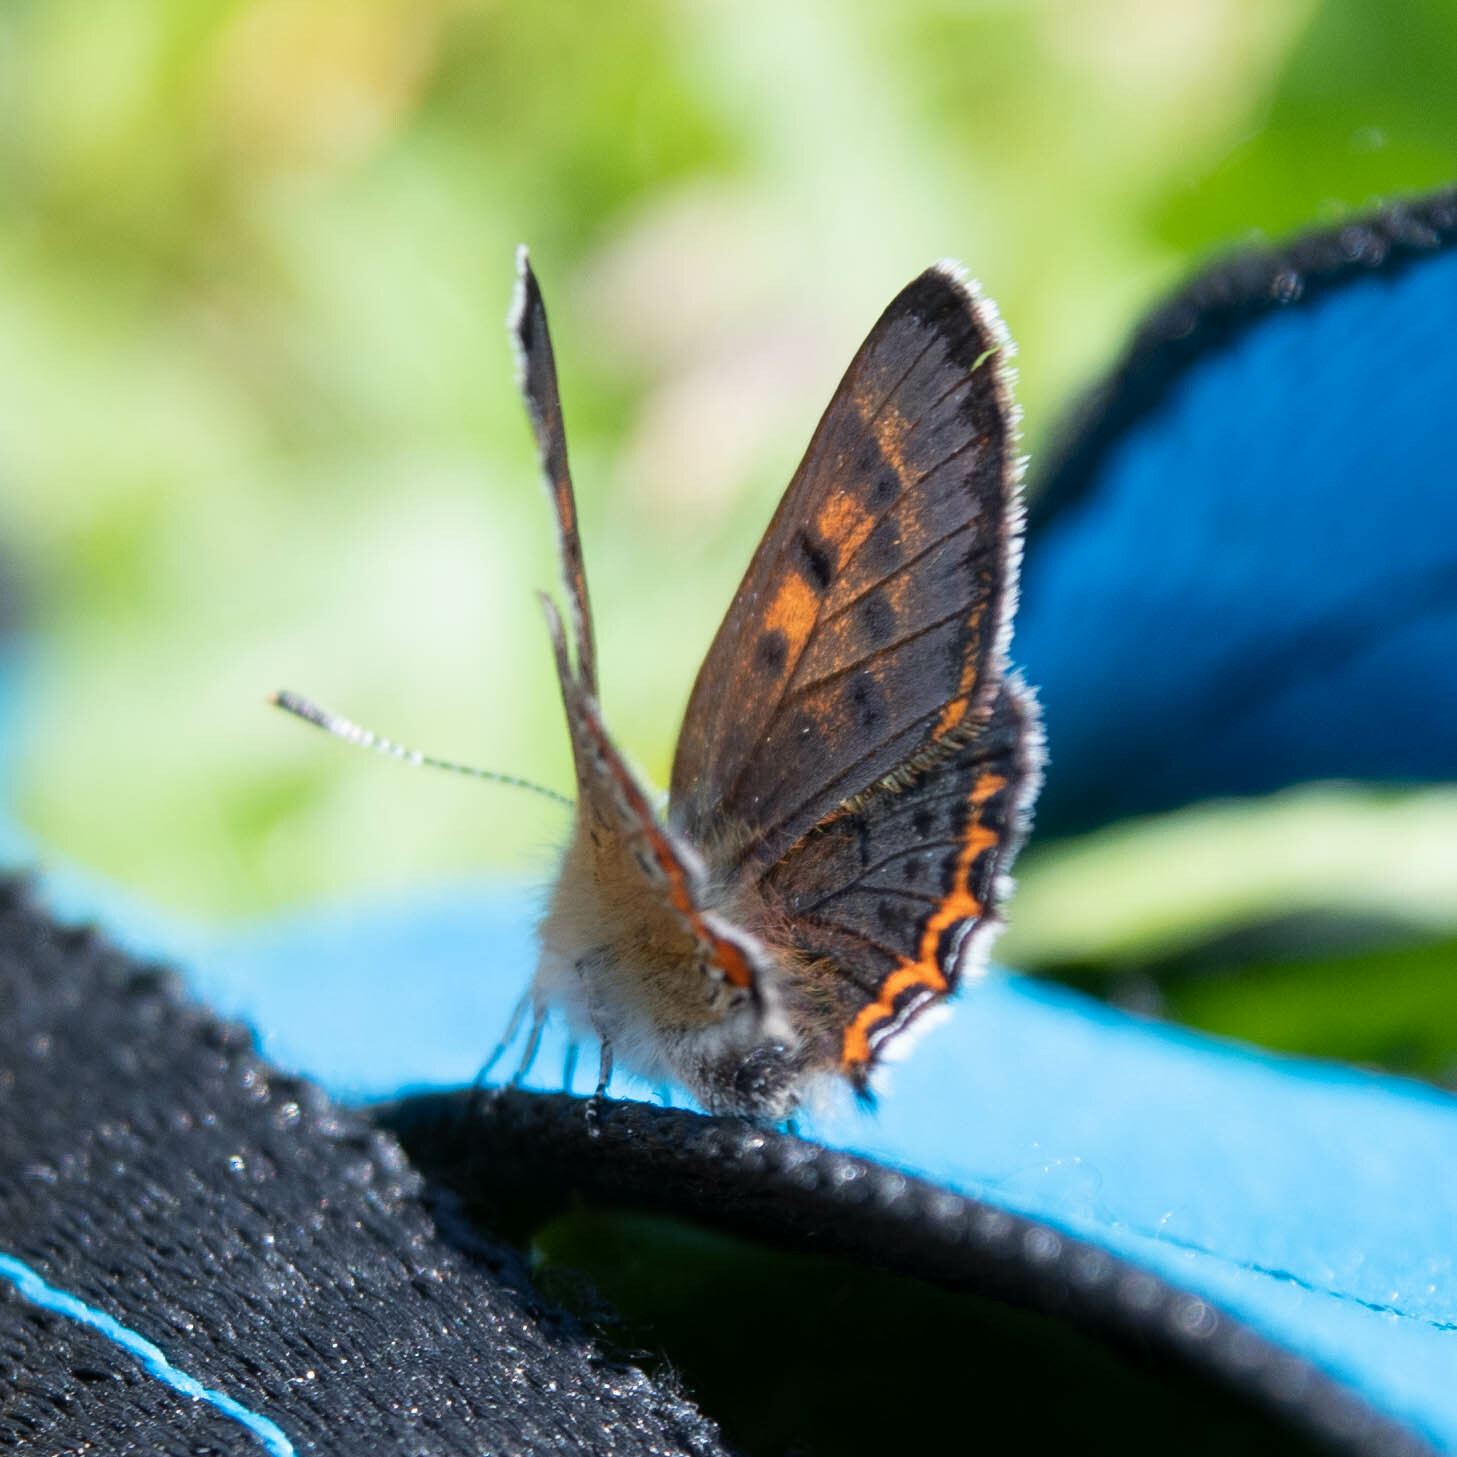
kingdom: Animalia
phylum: Arthropoda
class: Insecta
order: Lepidoptera
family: Lycaenidae
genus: Helleia
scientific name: Helleia helle
